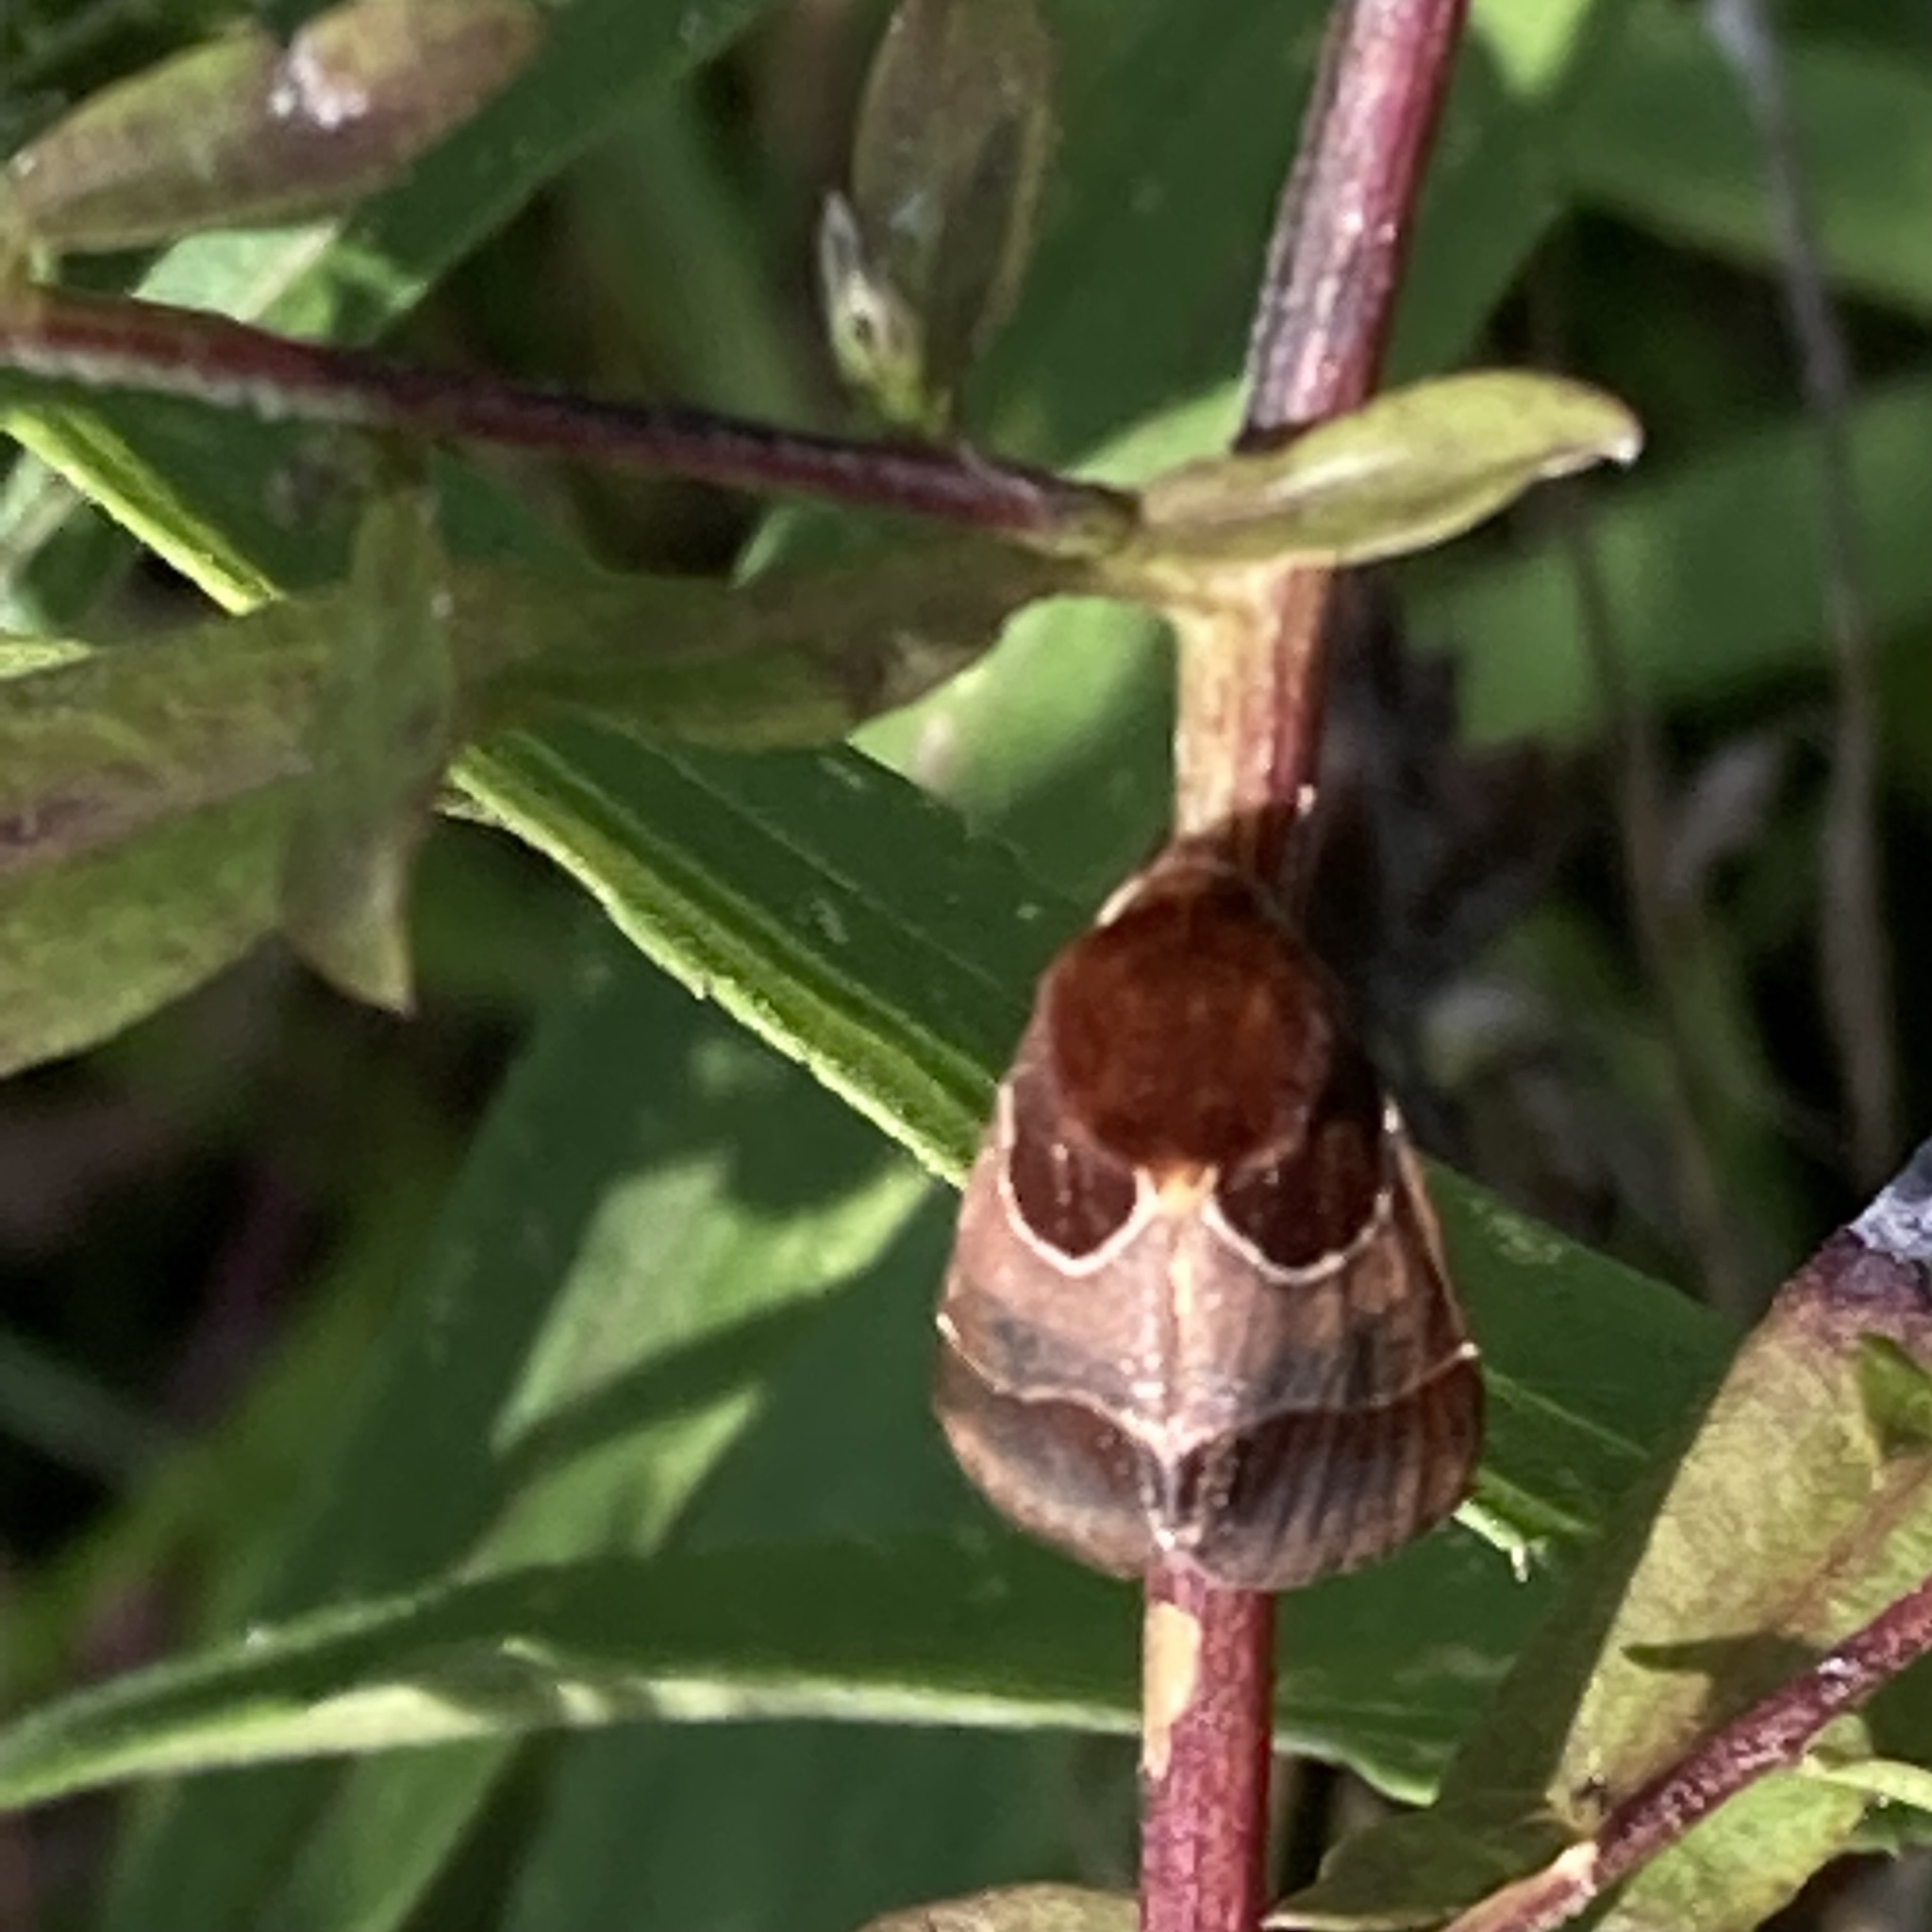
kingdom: Animalia
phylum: Arthropoda
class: Insecta
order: Lepidoptera
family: Noctuidae
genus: Schinia
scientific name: Schinia arcigera
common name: Arcigera flower moth
